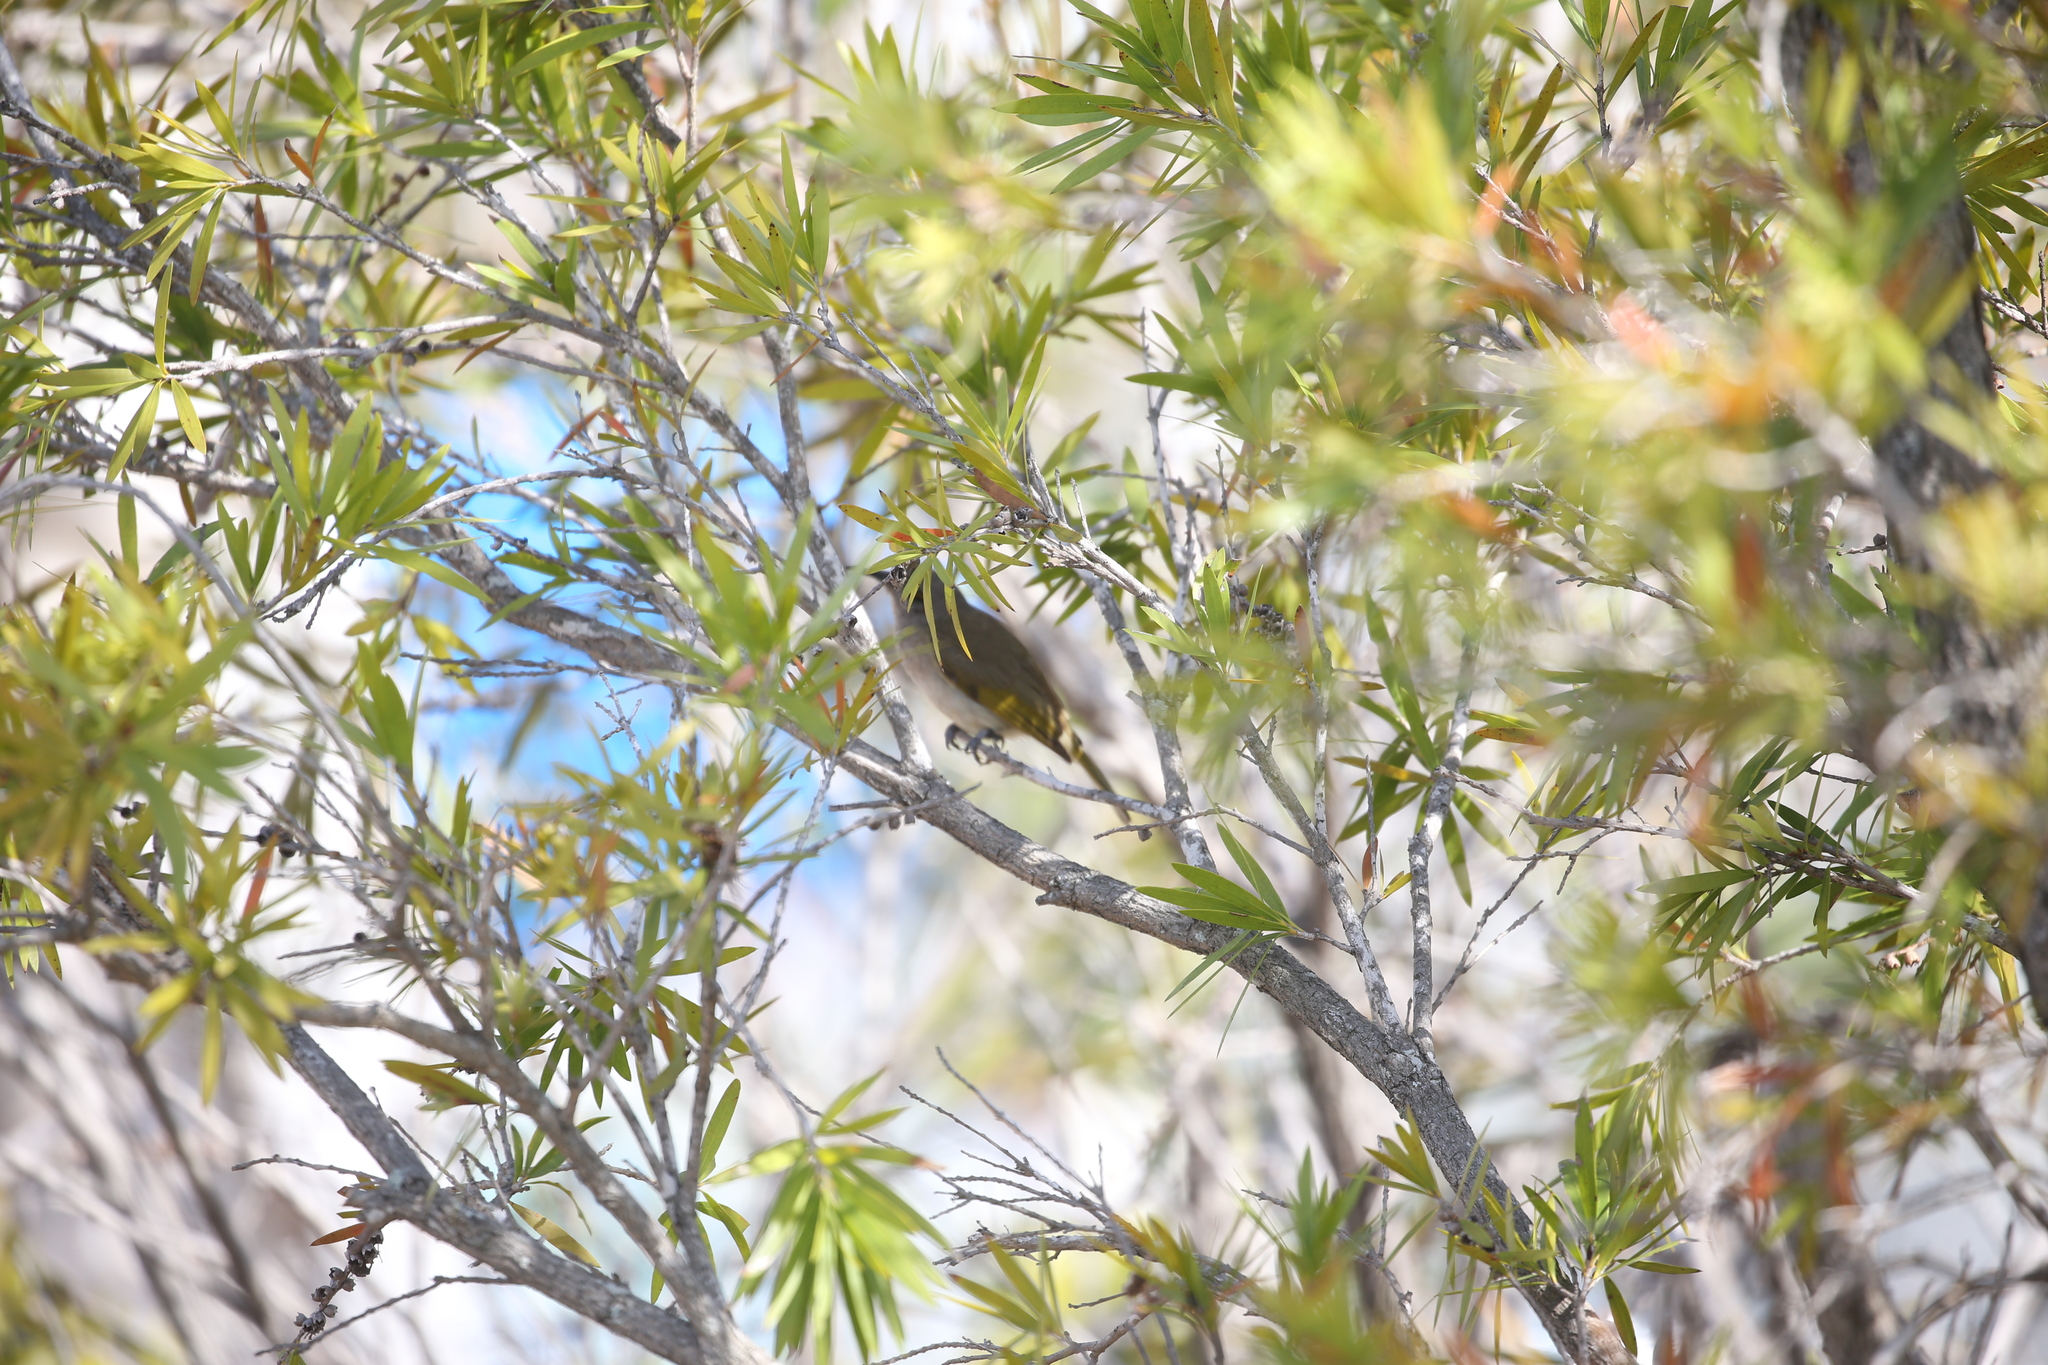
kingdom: Animalia
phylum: Chordata
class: Aves
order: Passeriformes
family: Meliphagidae
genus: Lichmera
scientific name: Lichmera indistincta
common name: Brown honeyeater
